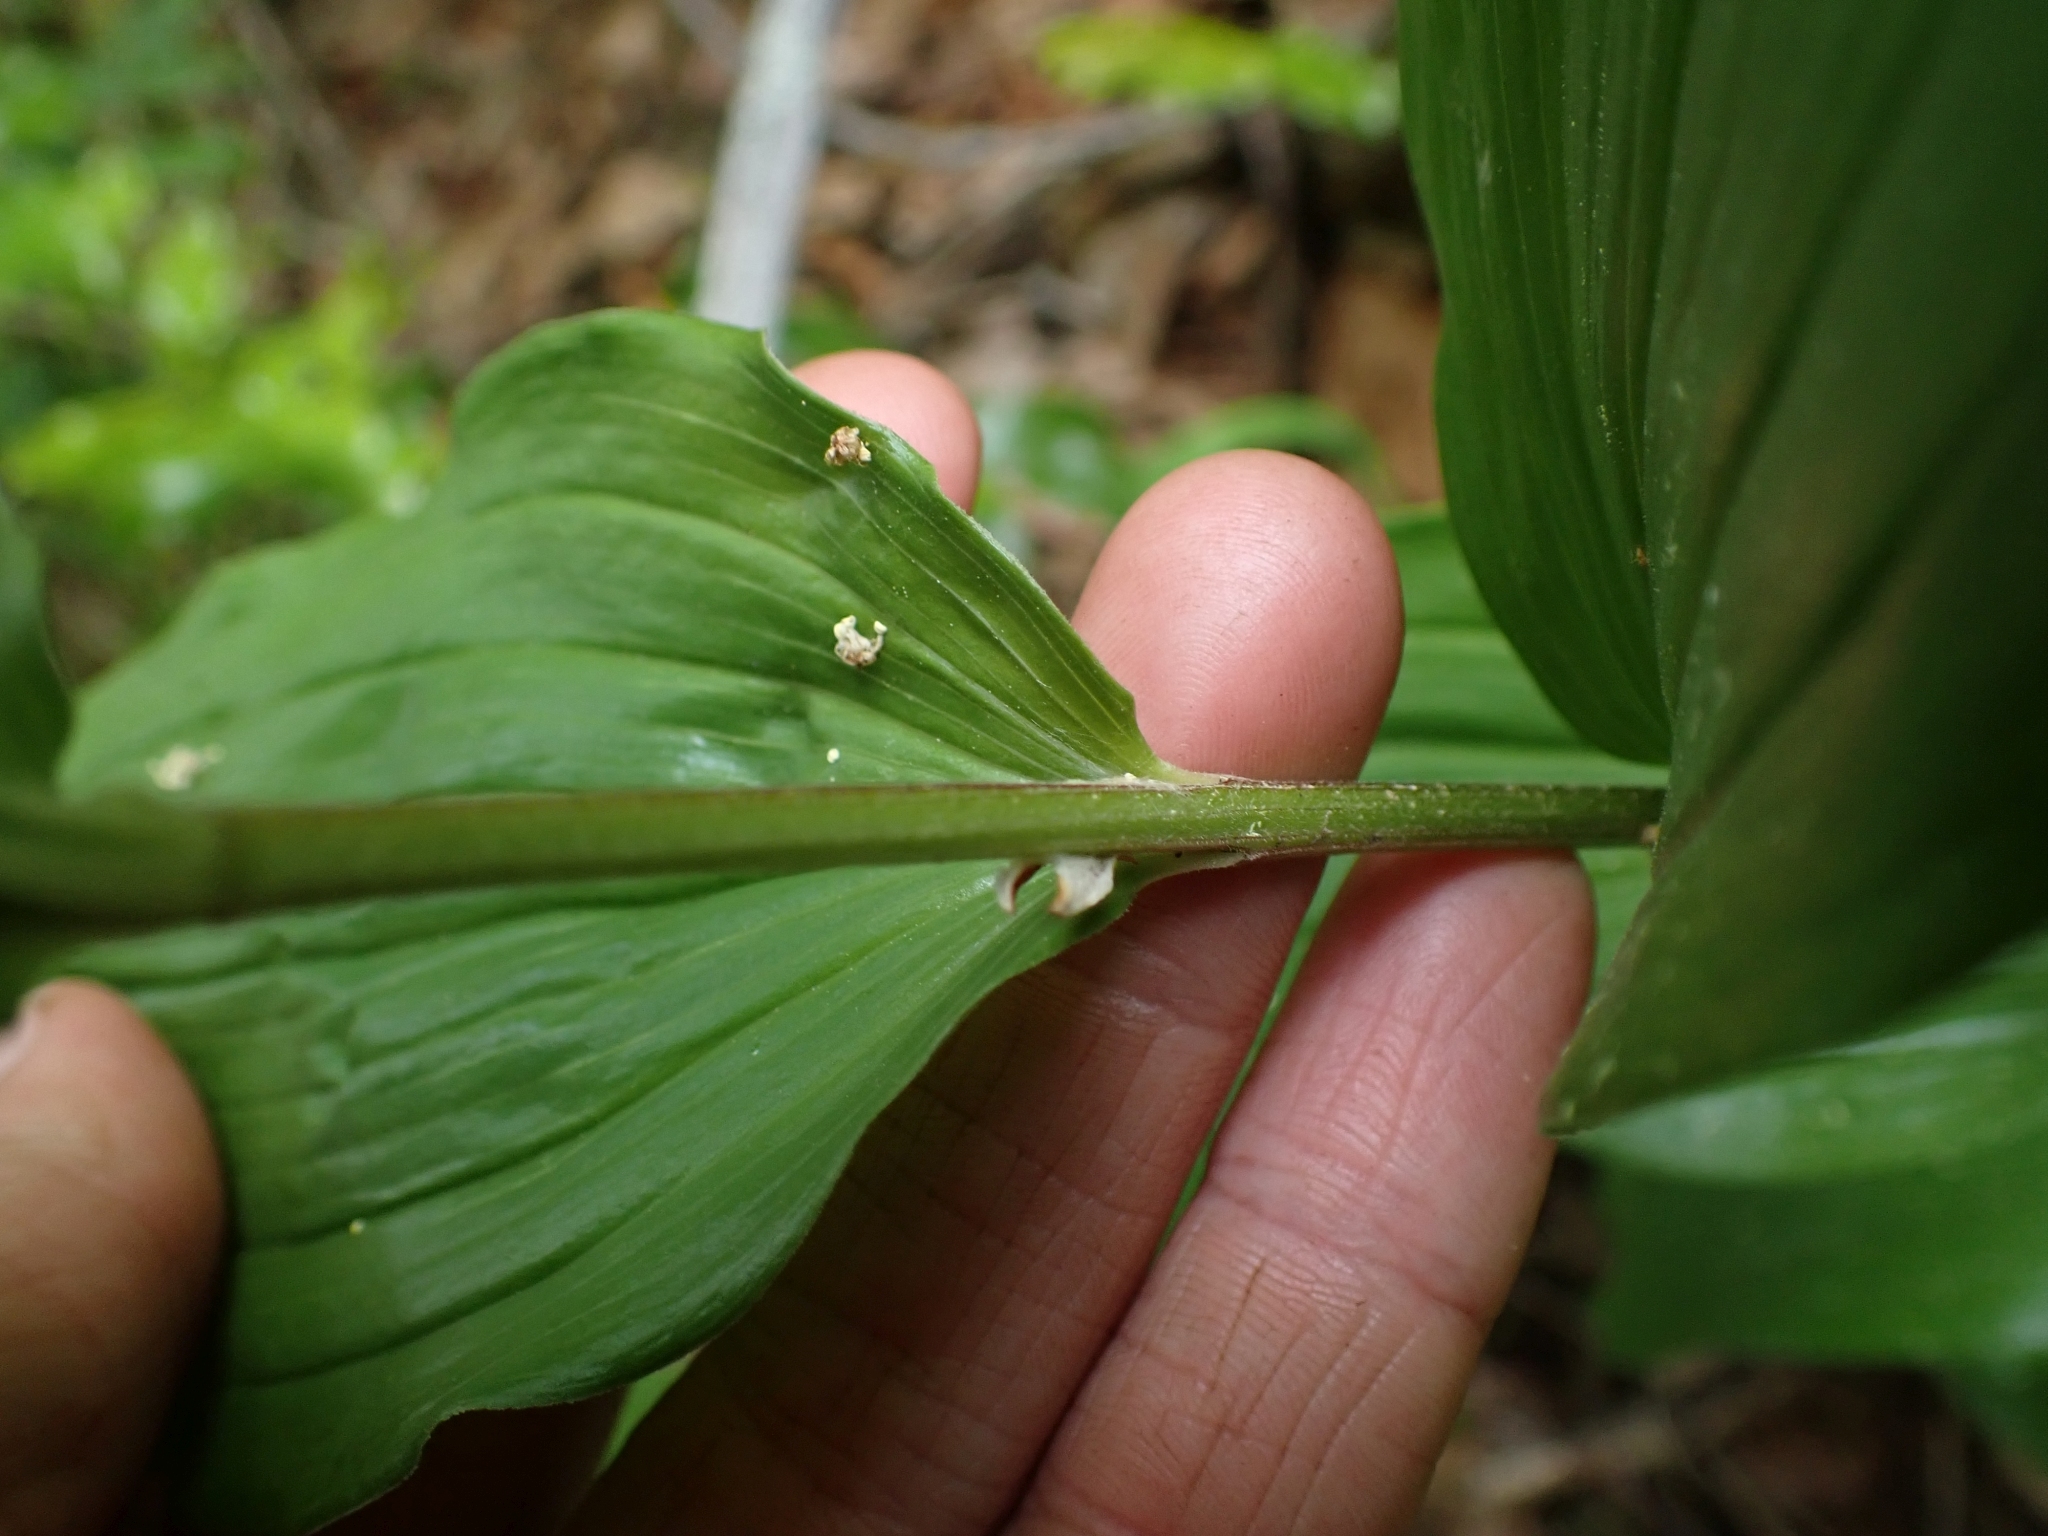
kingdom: Plantae
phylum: Tracheophyta
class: Liliopsida
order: Asparagales
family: Asparagaceae
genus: Maianthemum
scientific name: Maianthemum racemosum
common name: False spikenard
